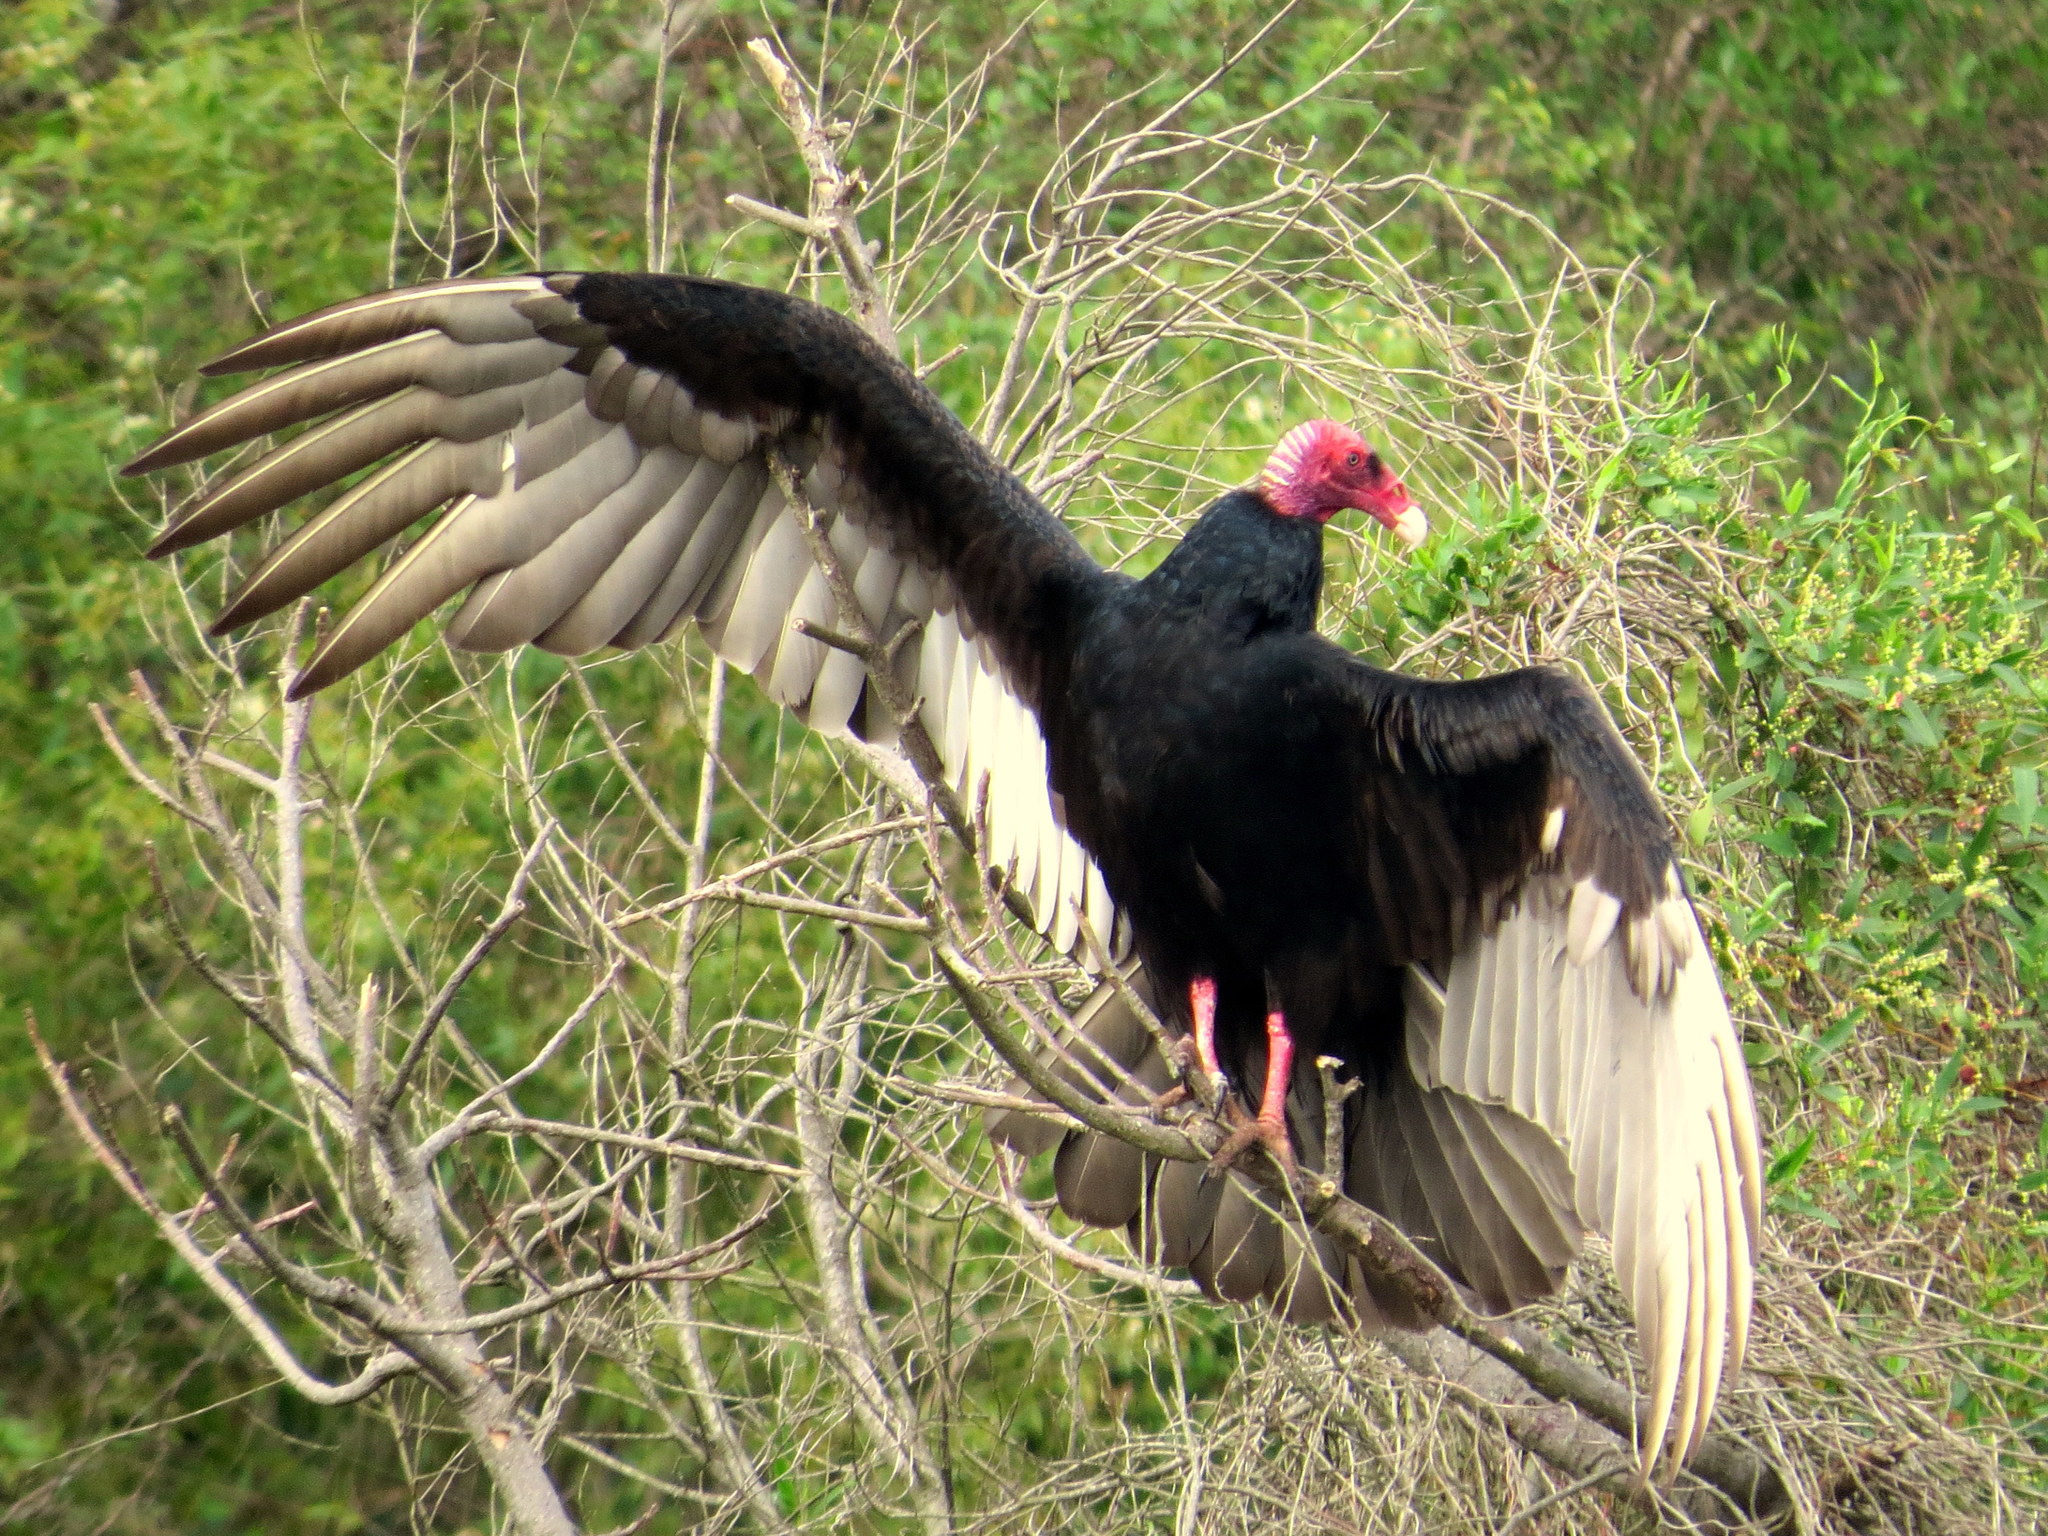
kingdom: Animalia
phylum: Chordata
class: Aves
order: Accipitriformes
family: Cathartidae
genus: Cathartes
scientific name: Cathartes aura
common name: Turkey vulture
